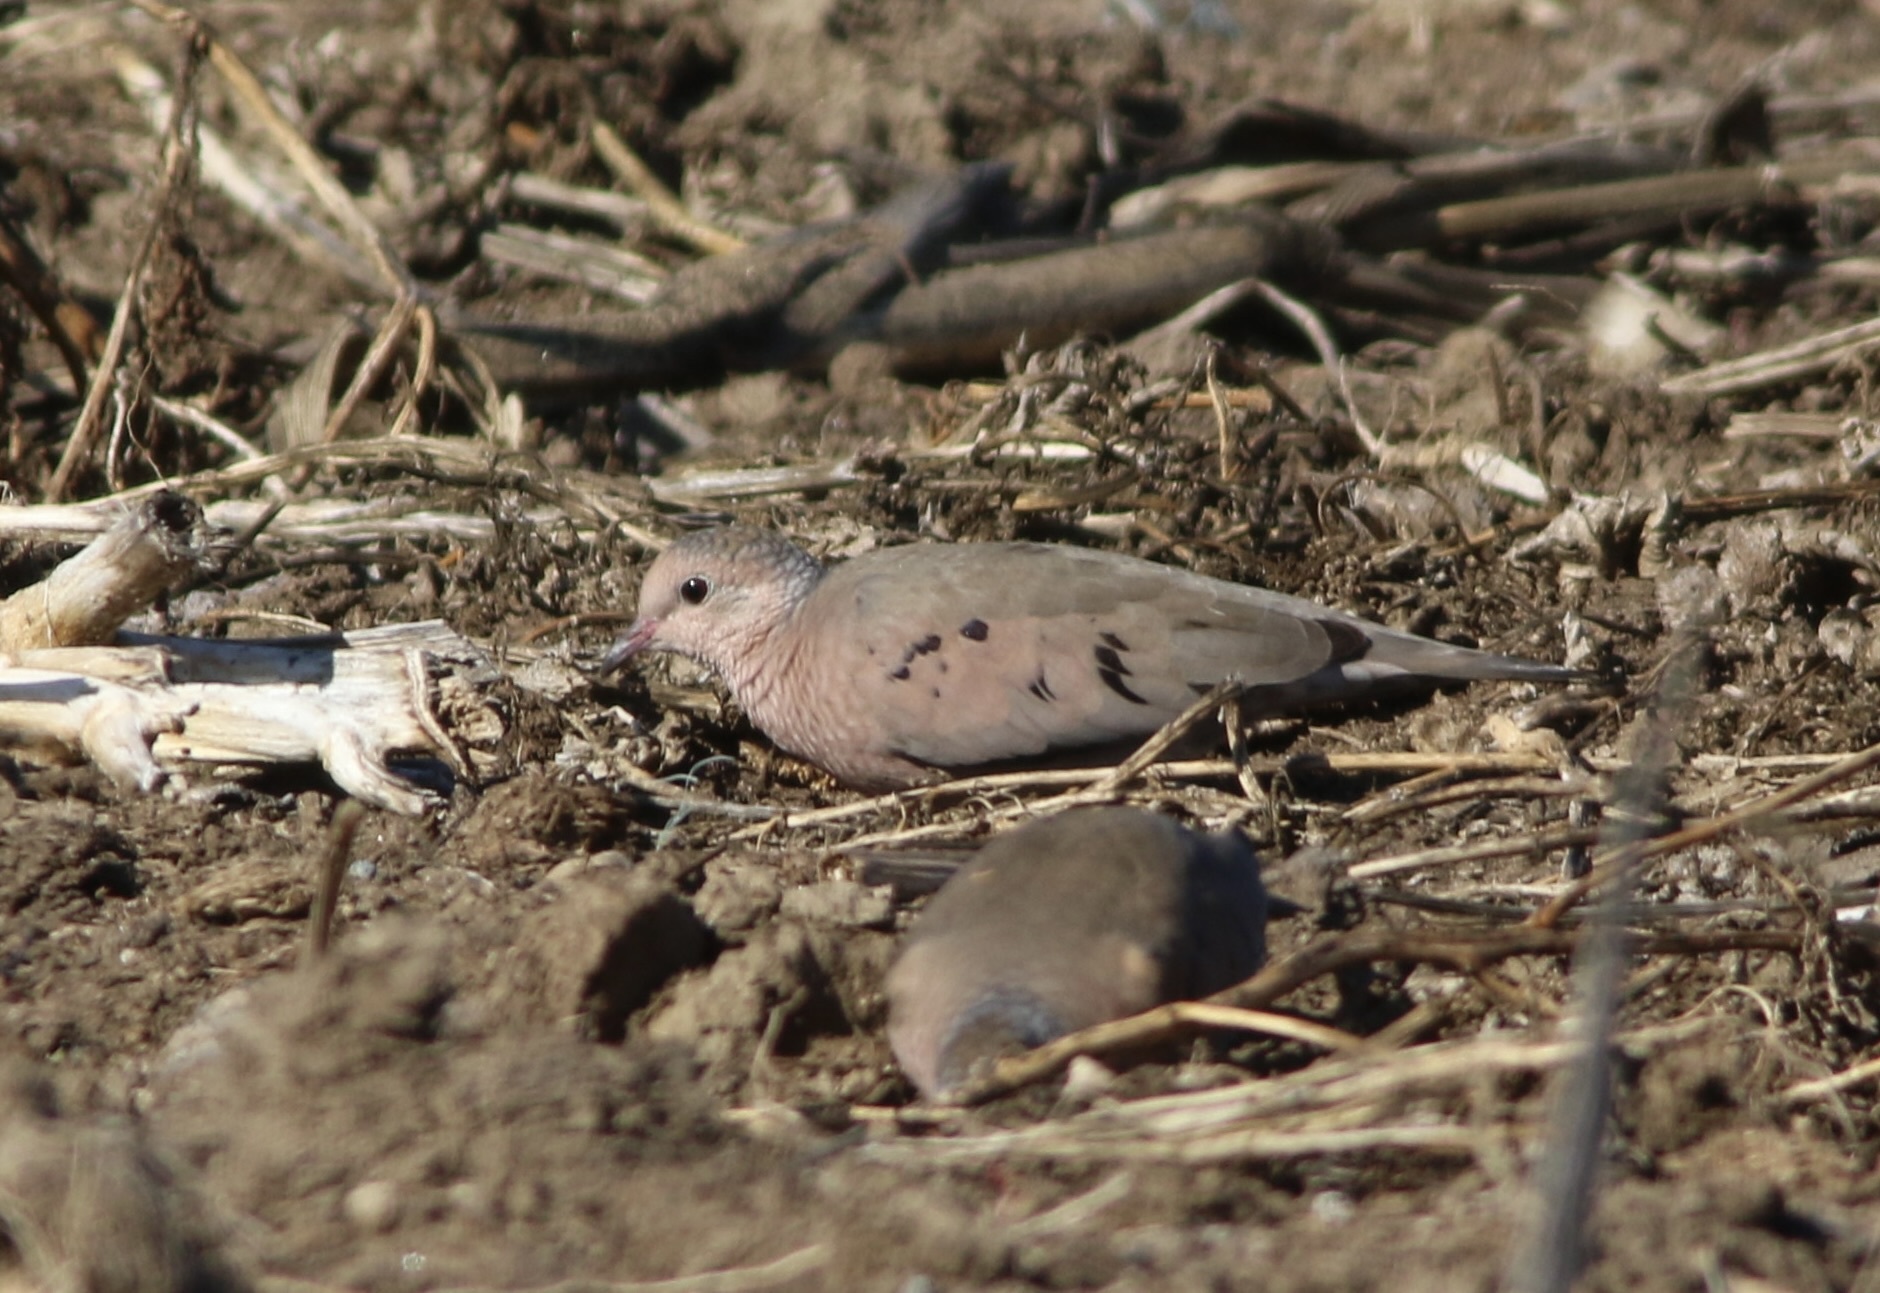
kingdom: Animalia
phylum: Chordata
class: Aves
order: Columbiformes
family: Columbidae
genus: Columbina
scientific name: Columbina passerina
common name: Common ground-dove
